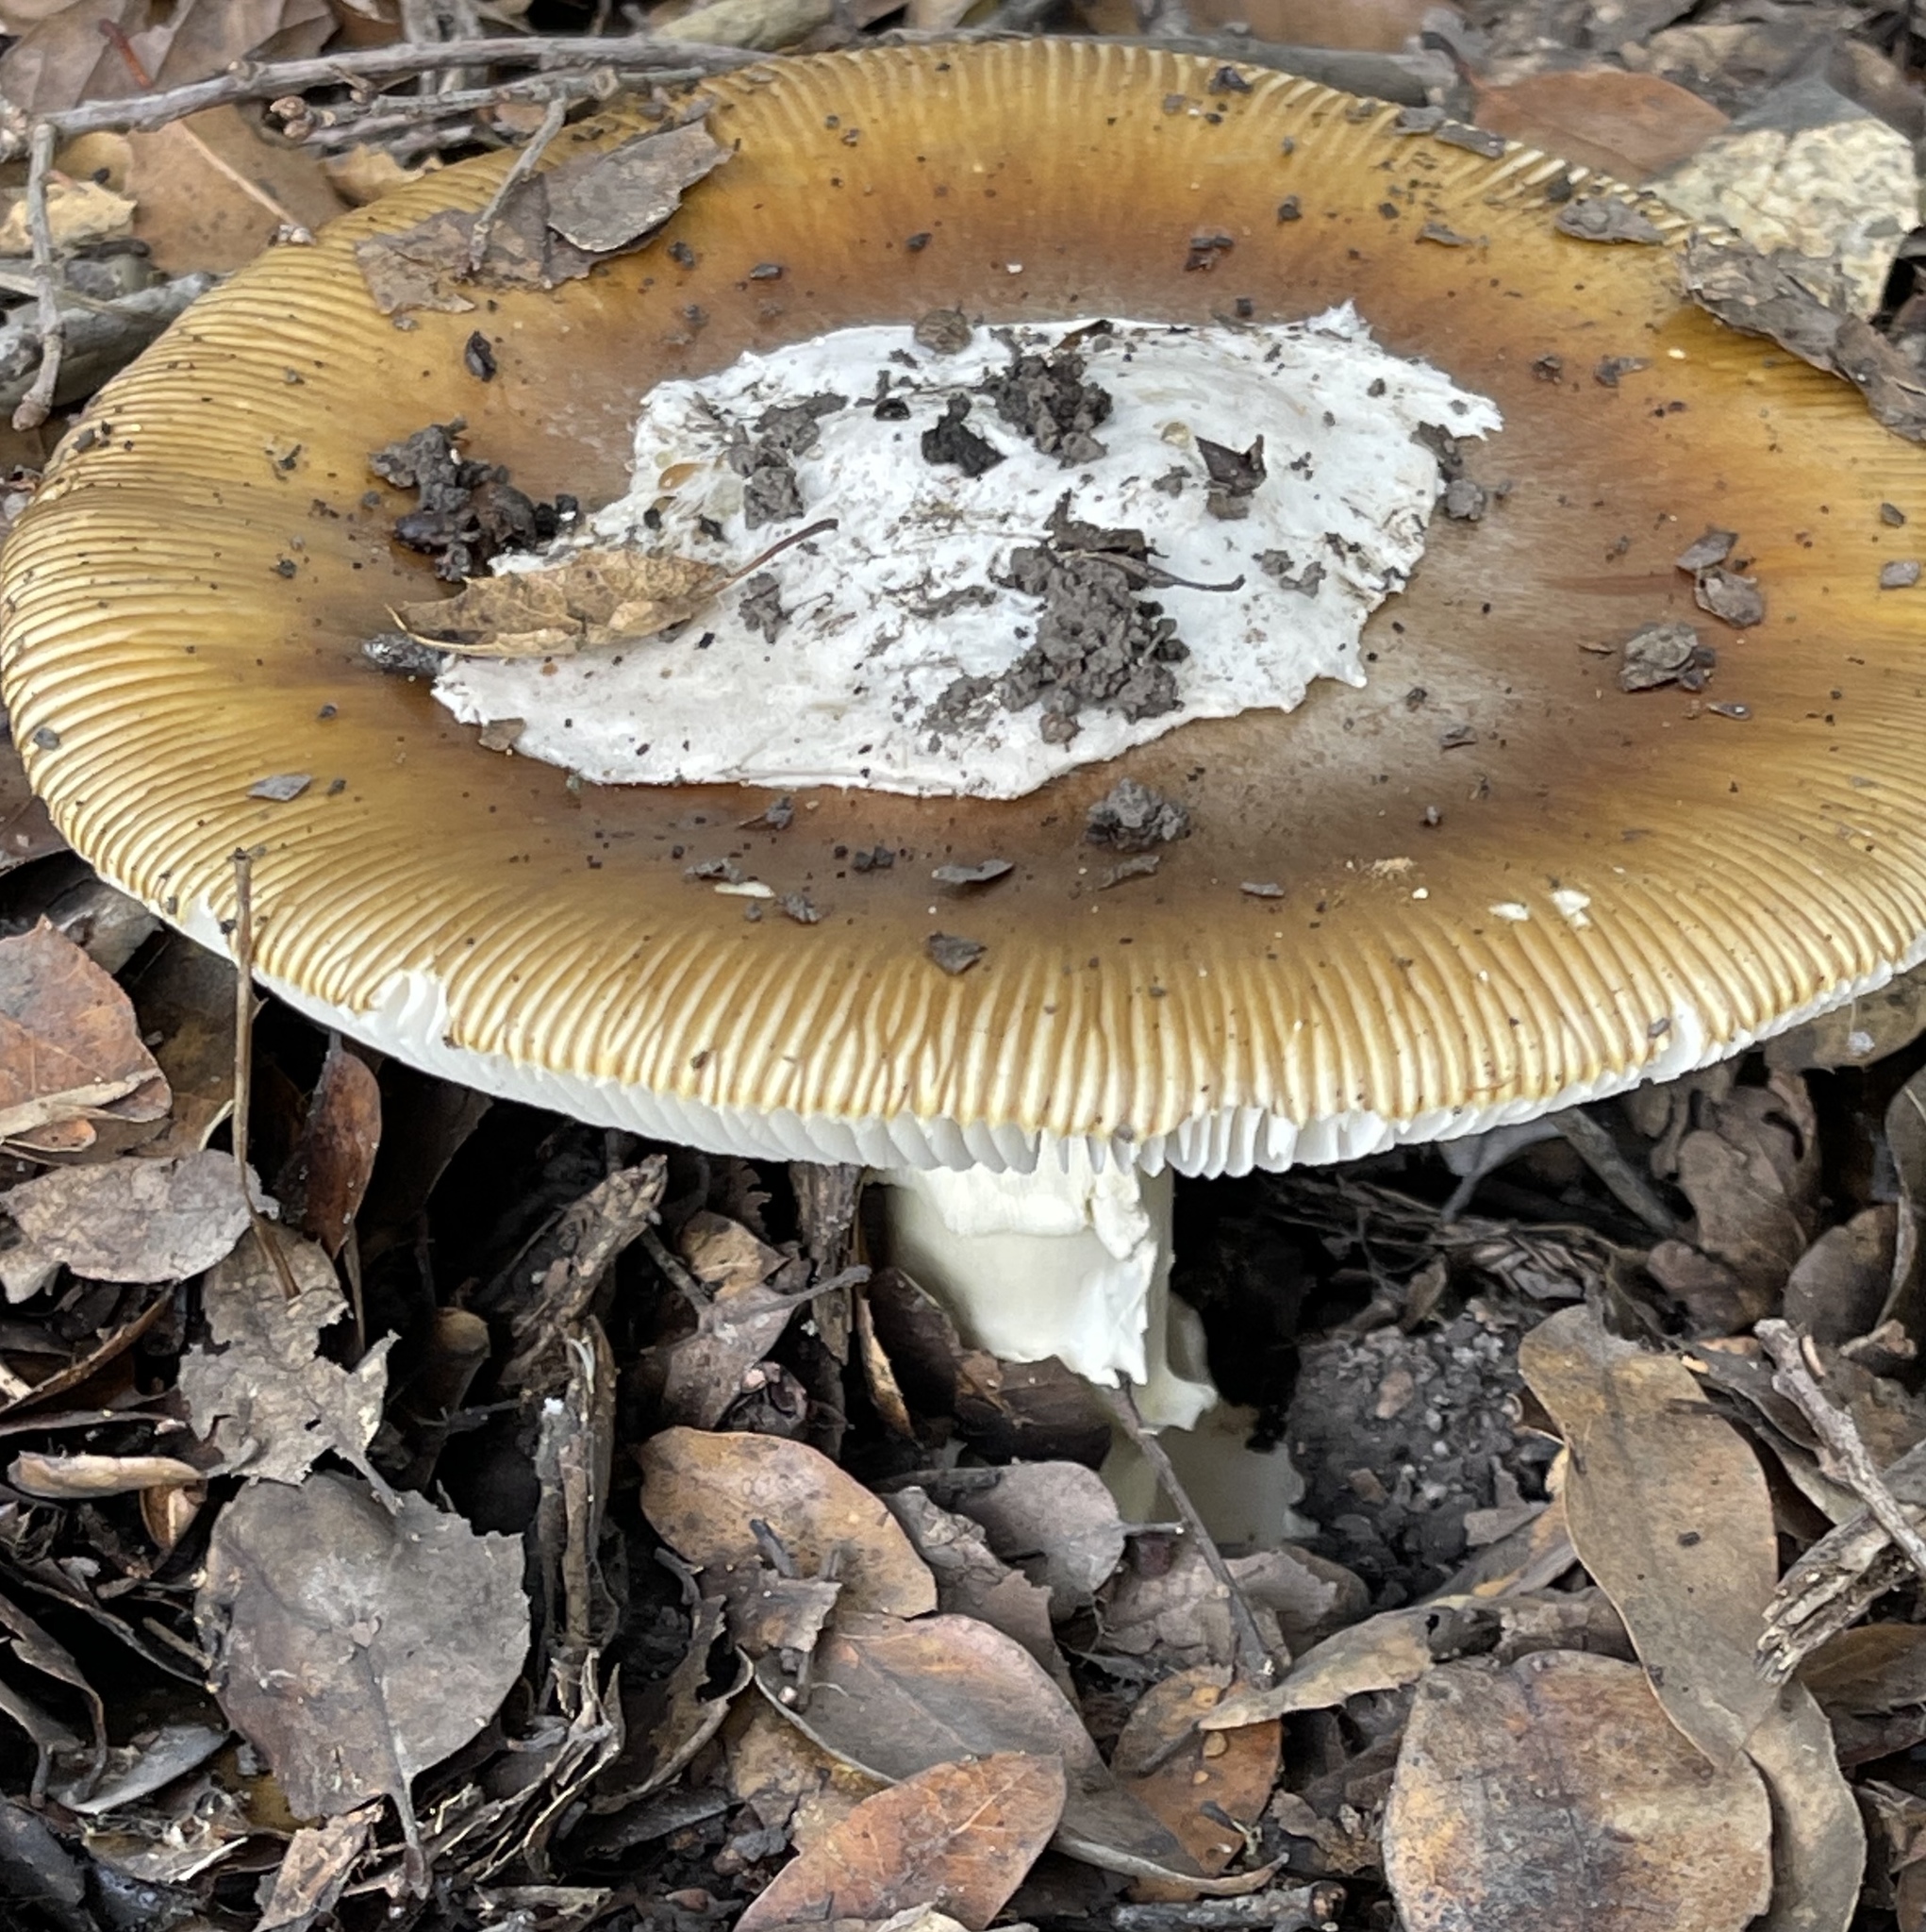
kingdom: Fungi
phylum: Basidiomycota
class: Agaricomycetes
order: Agaricales
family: Amanitaceae
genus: Amanita
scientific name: Amanita calyptroderma
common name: Coccora
